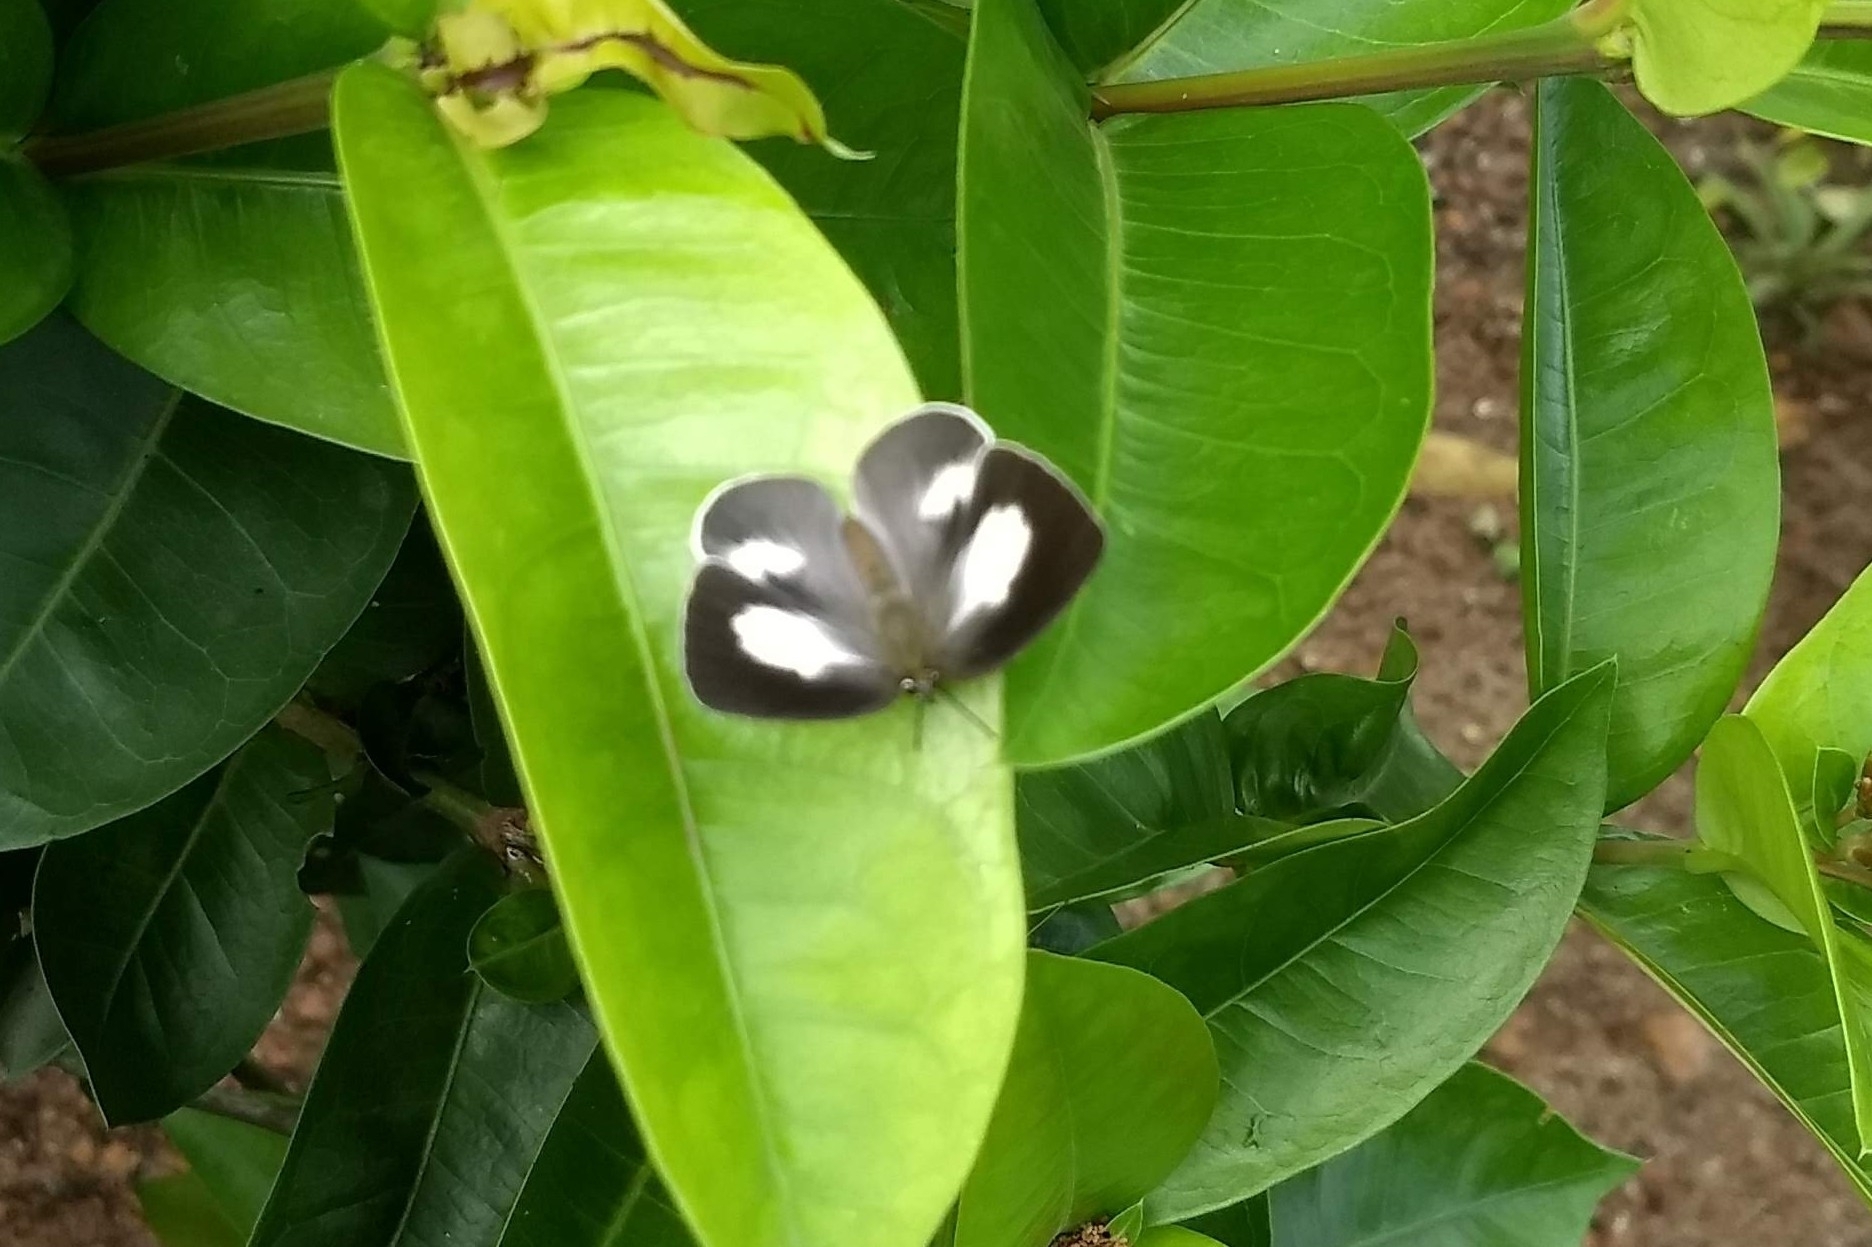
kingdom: Animalia
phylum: Arthropoda
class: Insecta
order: Lepidoptera
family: Lycaenidae
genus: Curetis
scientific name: Curetis thetis
